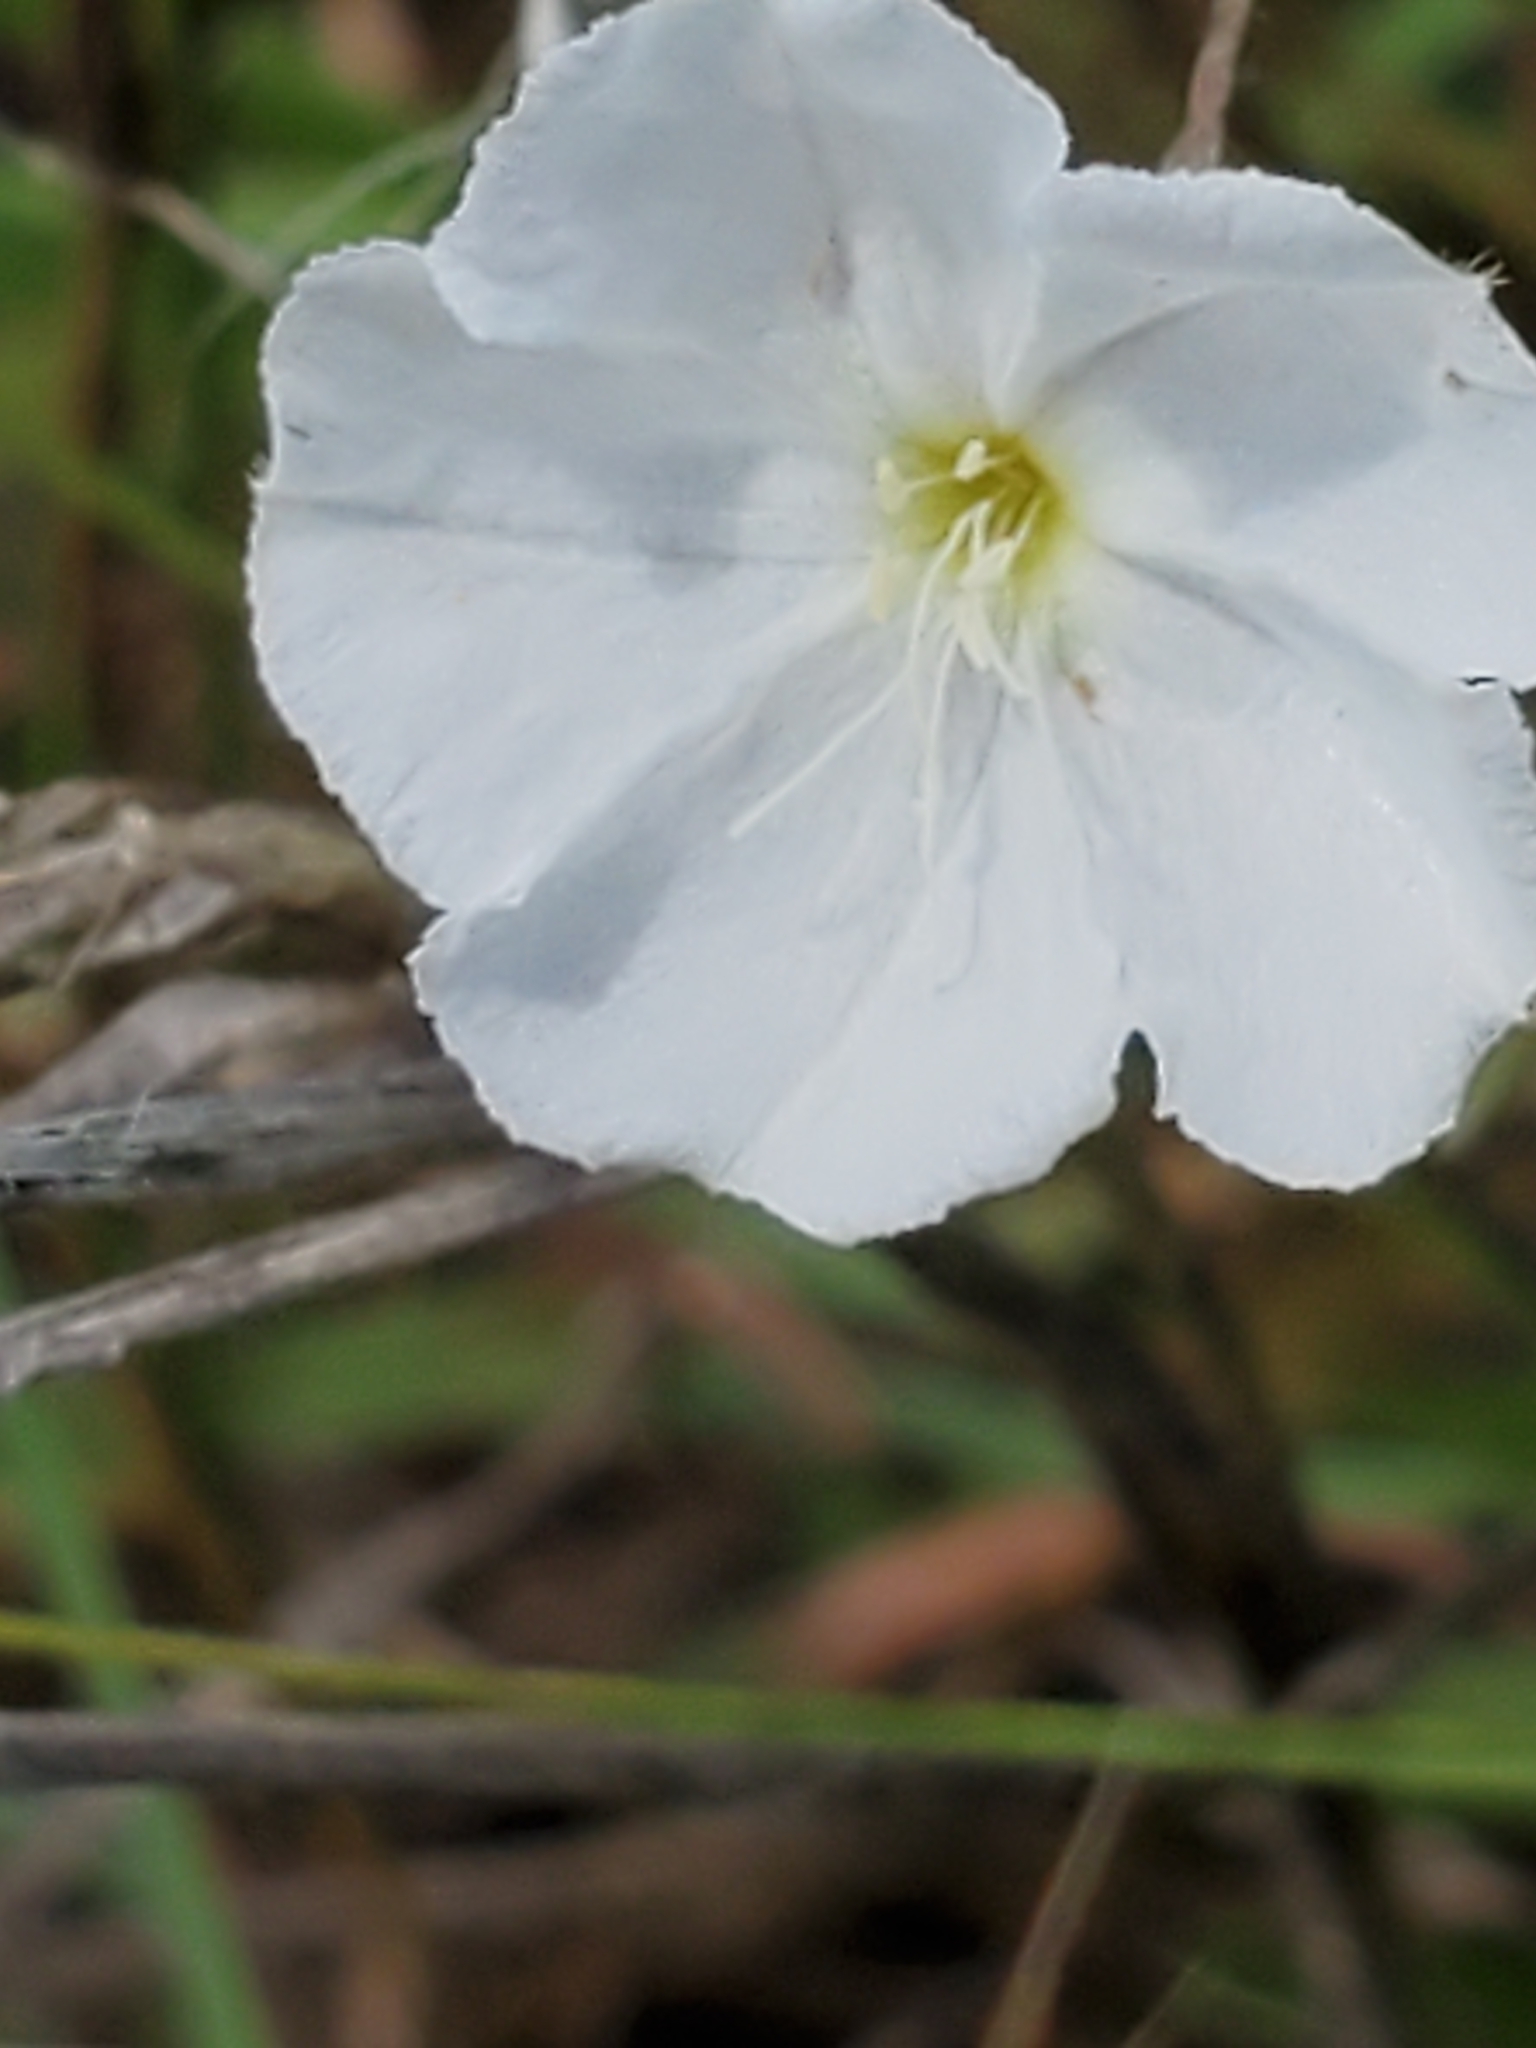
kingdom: Plantae
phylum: Tracheophyta
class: Magnoliopsida
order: Solanales
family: Convolvulaceae
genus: Evolvulus
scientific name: Evolvulus sericeus
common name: Blue dots
